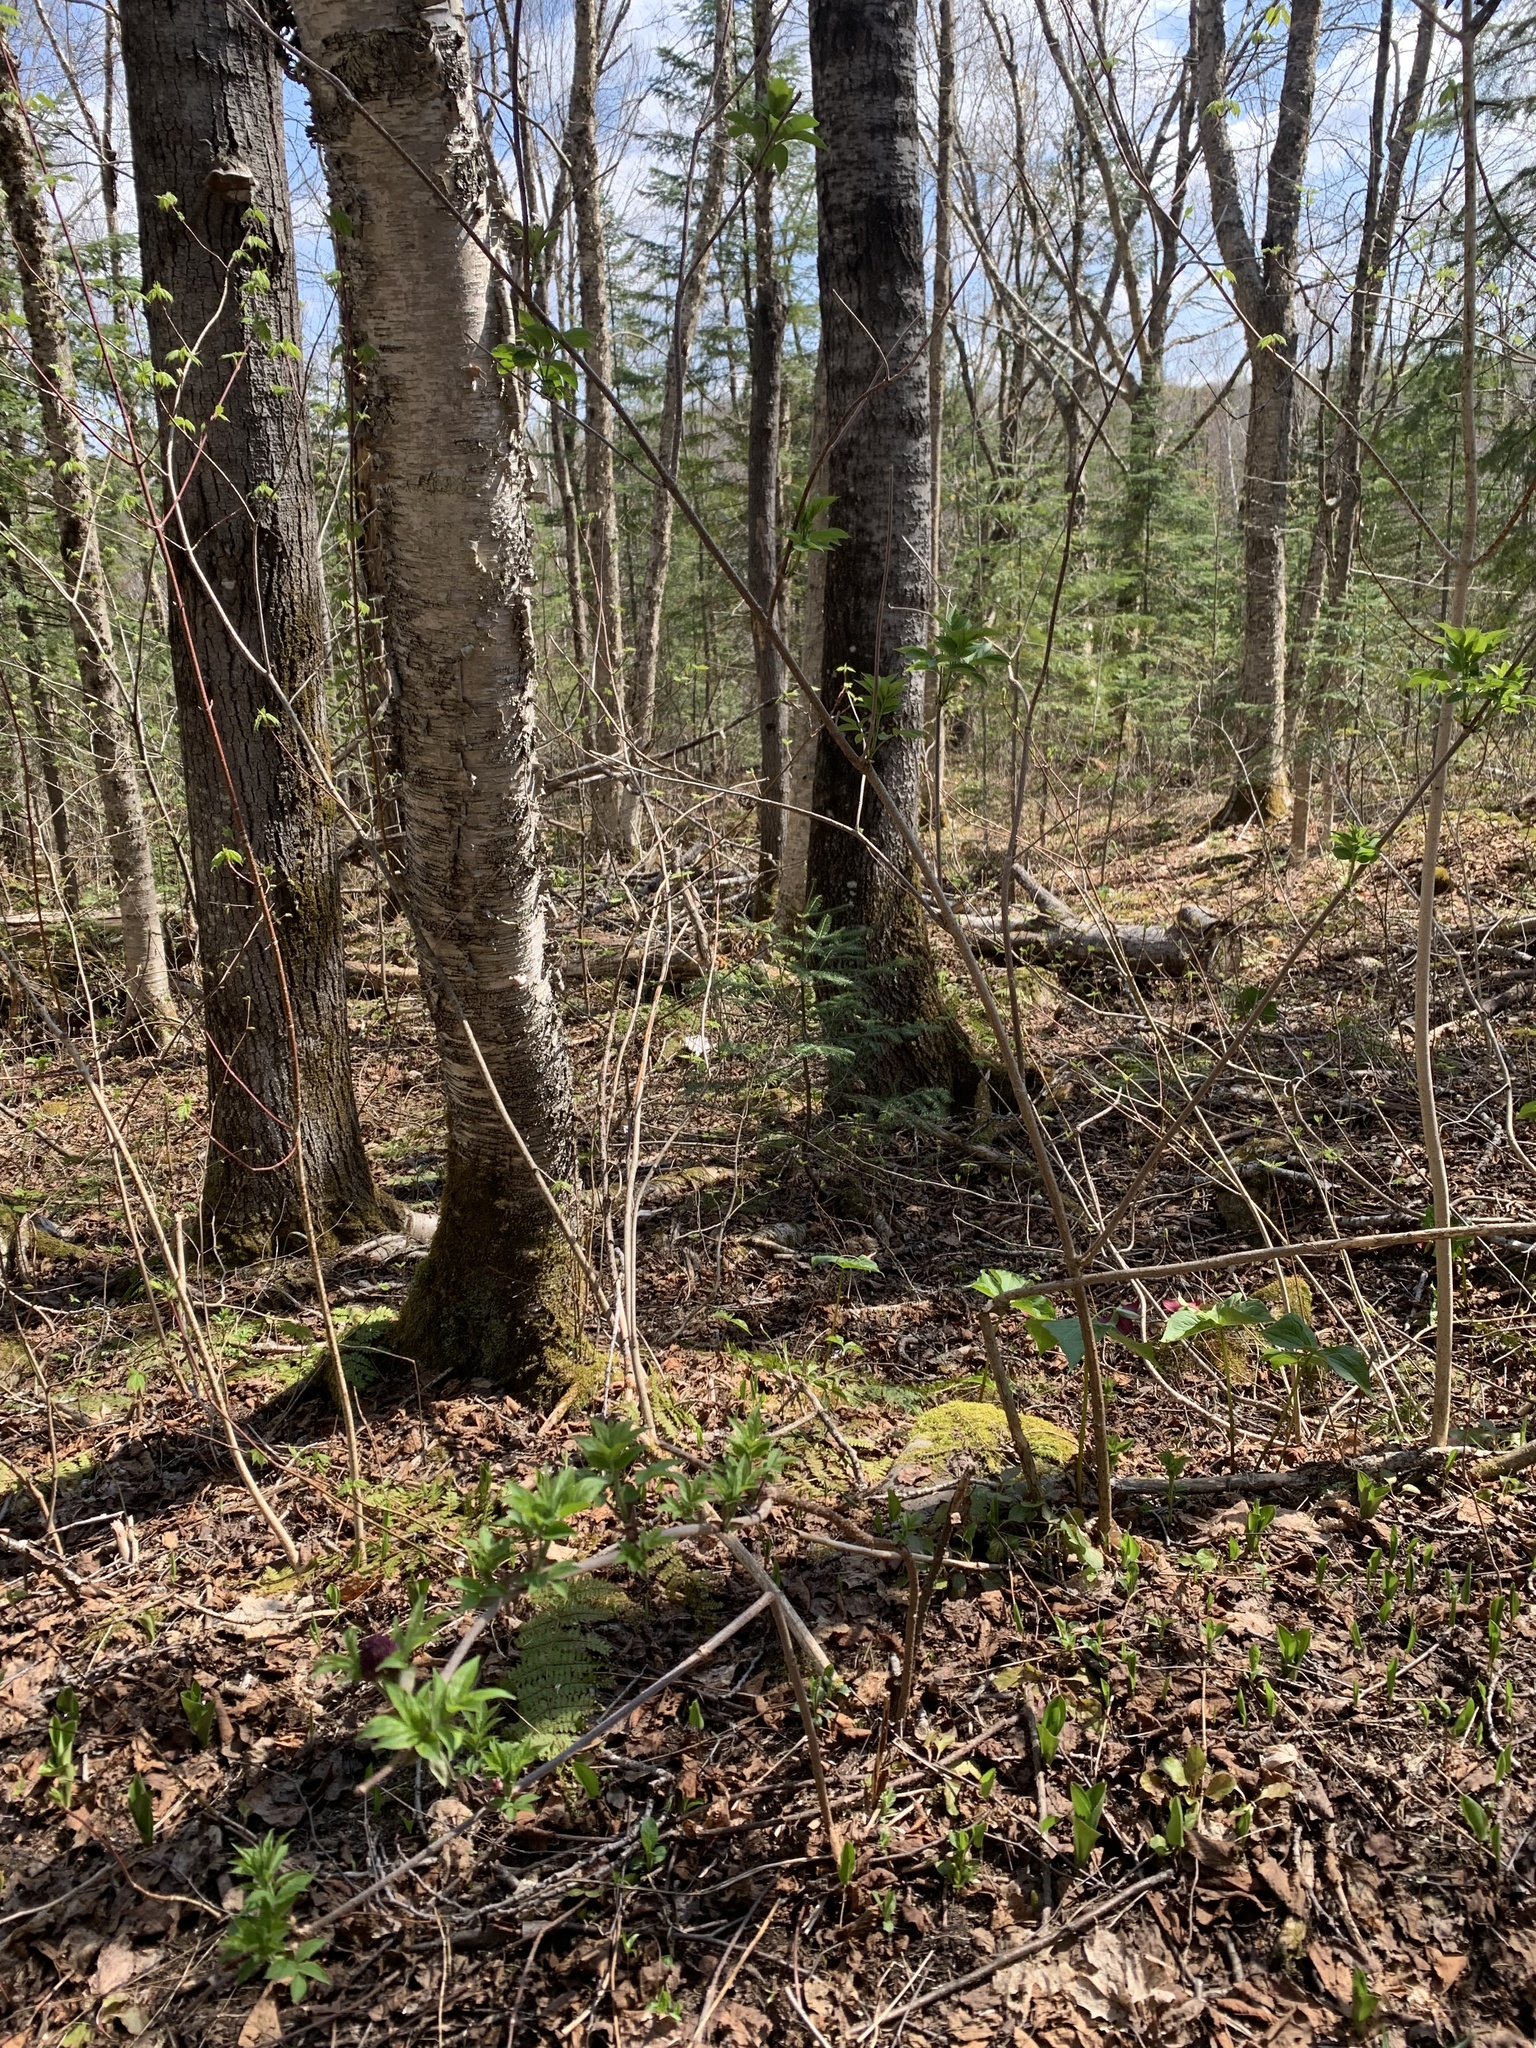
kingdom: Plantae
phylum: Tracheophyta
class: Magnoliopsida
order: Dipsacales
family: Viburnaceae
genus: Sambucus
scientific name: Sambucus racemosa
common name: Red-berried elder
